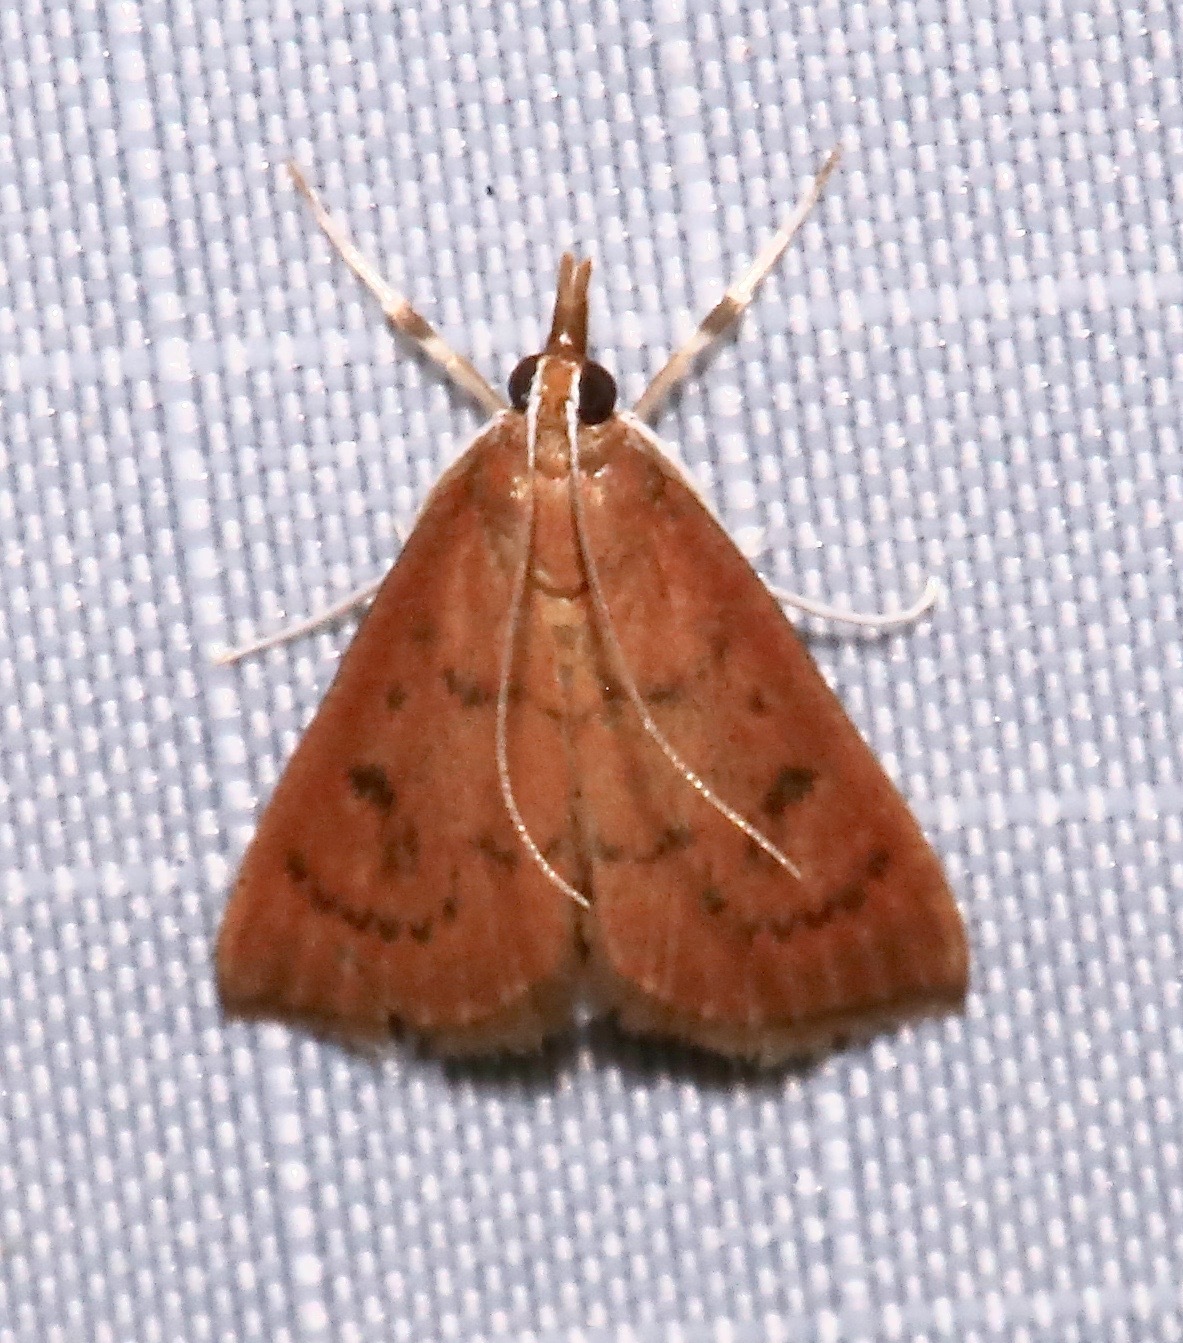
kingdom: Animalia
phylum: Arthropoda
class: Insecta
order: Lepidoptera
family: Crambidae
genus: Oenobotys
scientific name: Oenobotys vinotinctalis
